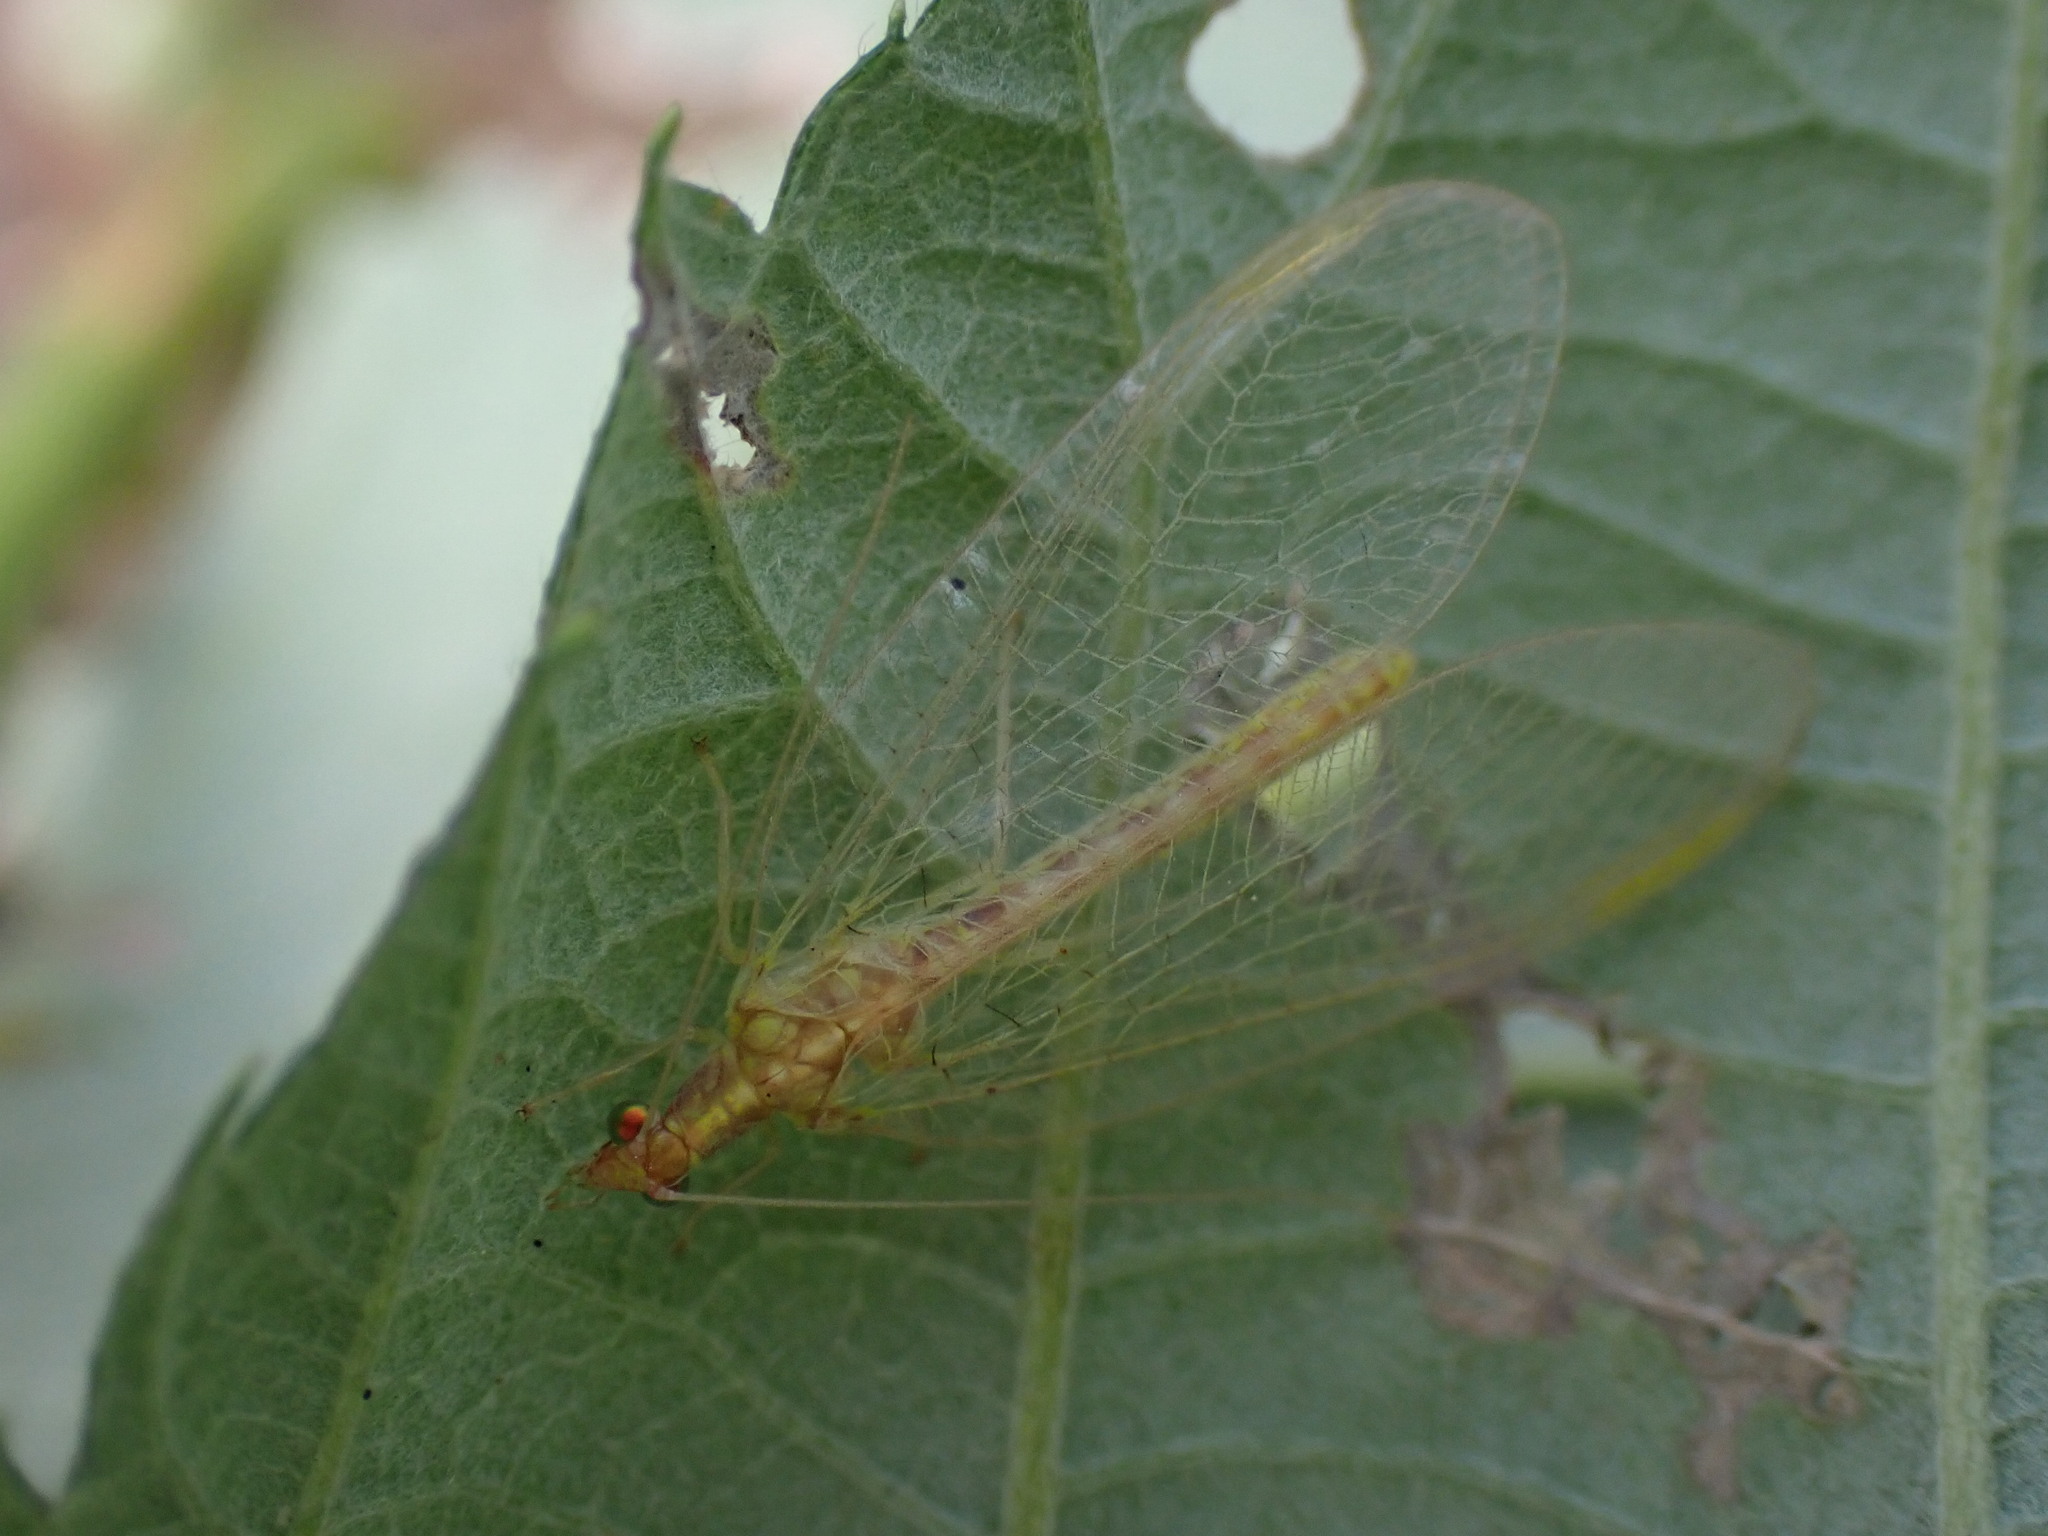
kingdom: Animalia
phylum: Arthropoda
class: Insecta
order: Neuroptera
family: Chrysopidae
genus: Chrysoperla
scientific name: Chrysoperla
